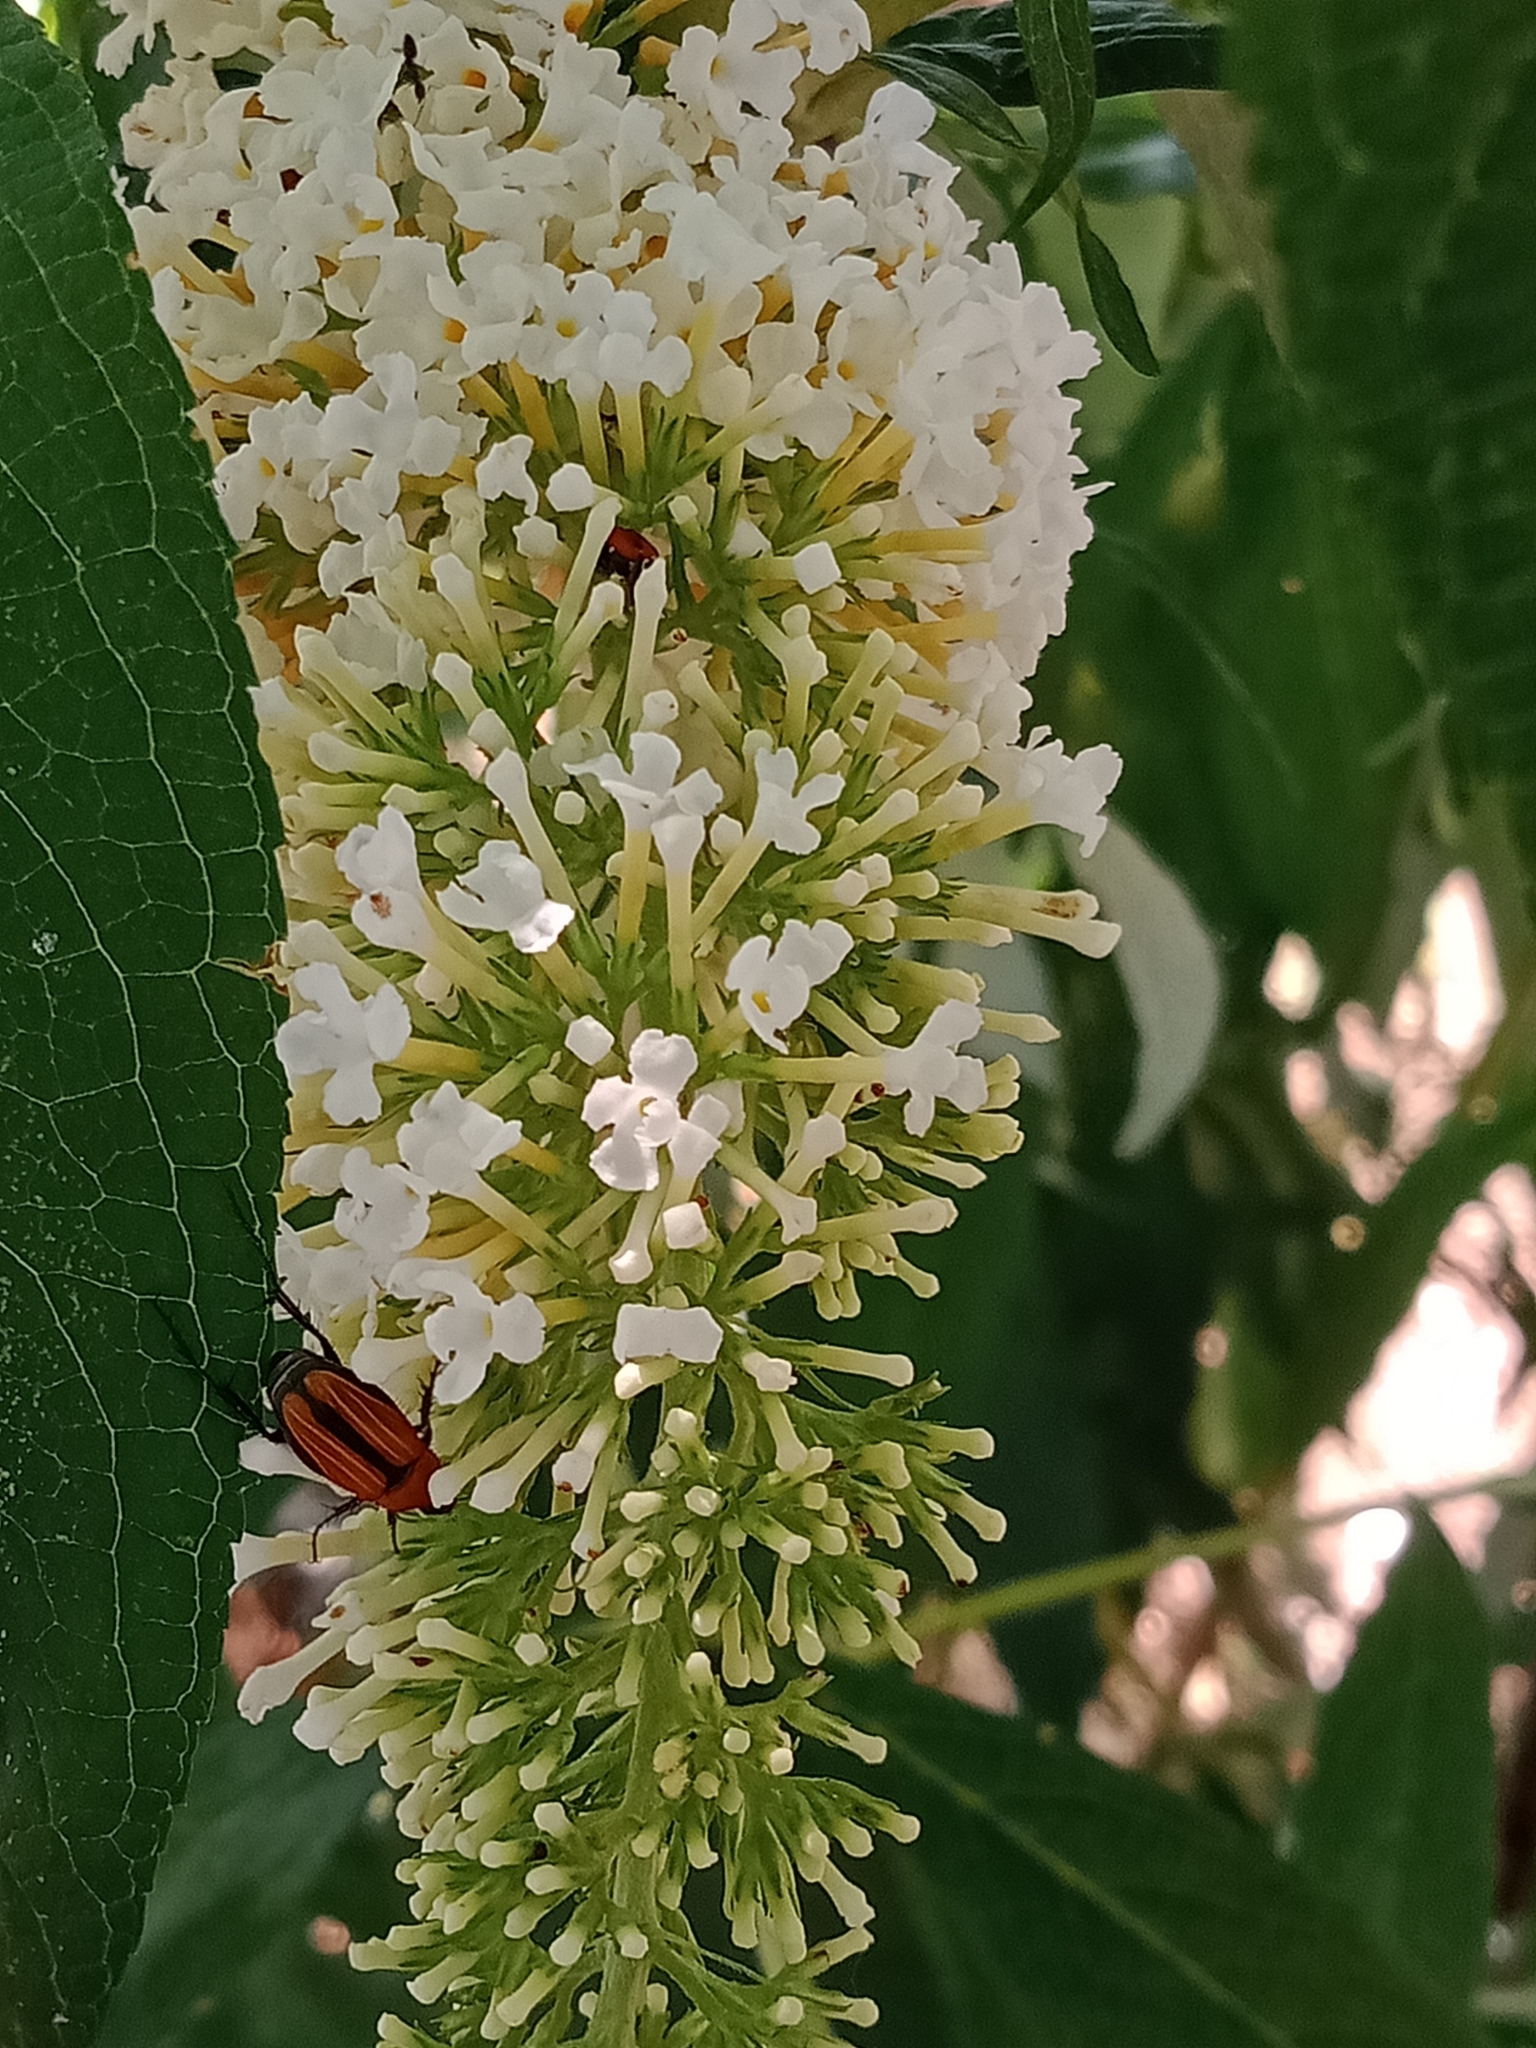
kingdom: Animalia
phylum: Arthropoda
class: Insecta
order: Coleoptera
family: Scarabaeidae
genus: Phyllotocus
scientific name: Phyllotocus scutellaris
